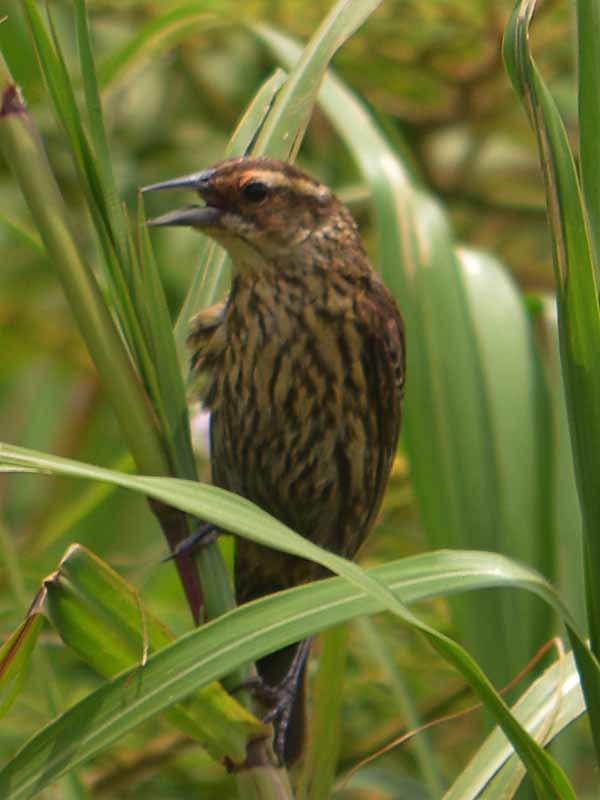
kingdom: Animalia
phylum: Chordata
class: Aves
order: Passeriformes
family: Icteridae
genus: Agelaius
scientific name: Agelaius phoeniceus
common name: Red-winged blackbird
